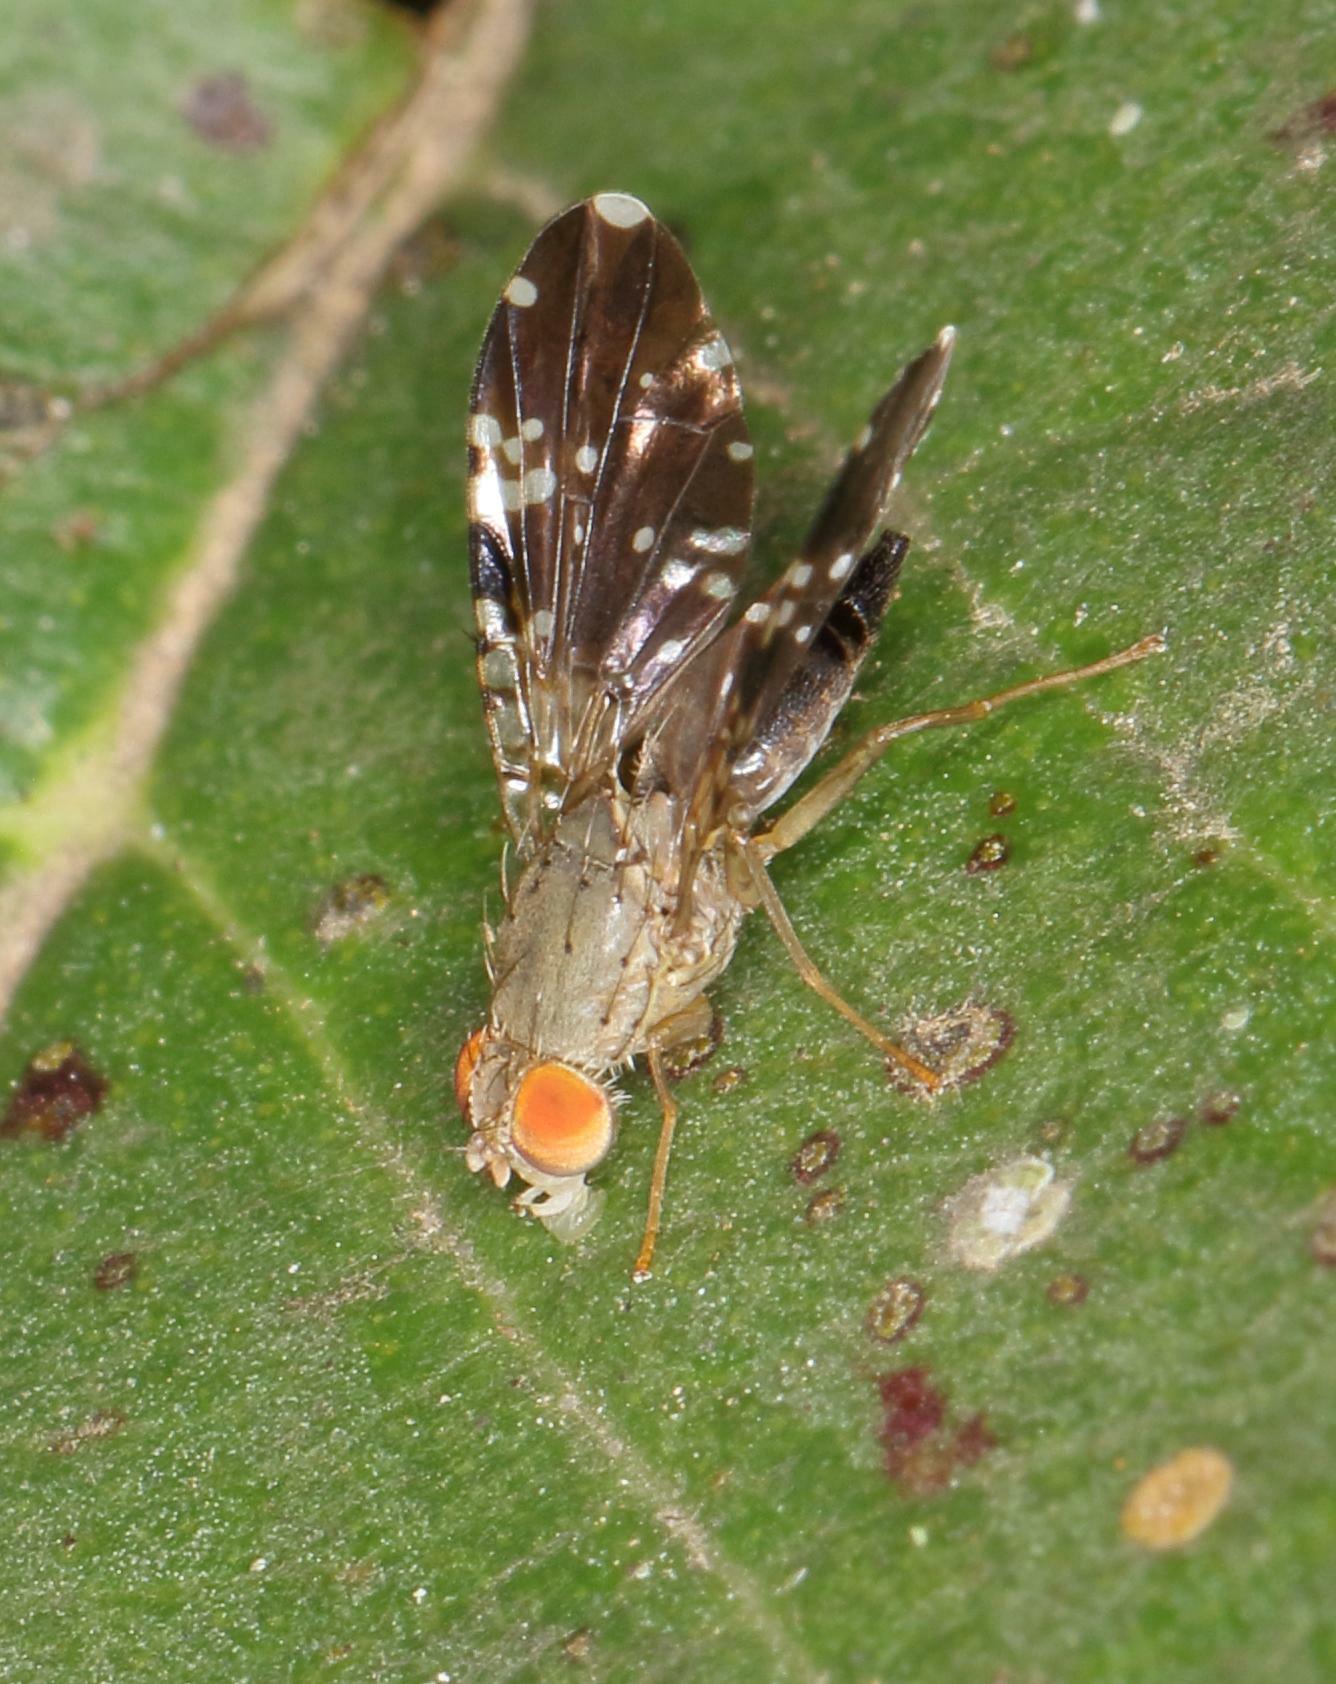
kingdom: Animalia
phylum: Arthropoda
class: Insecta
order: Diptera
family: Tephritidae
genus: Pseudafreutreta
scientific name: Pseudafreutreta
